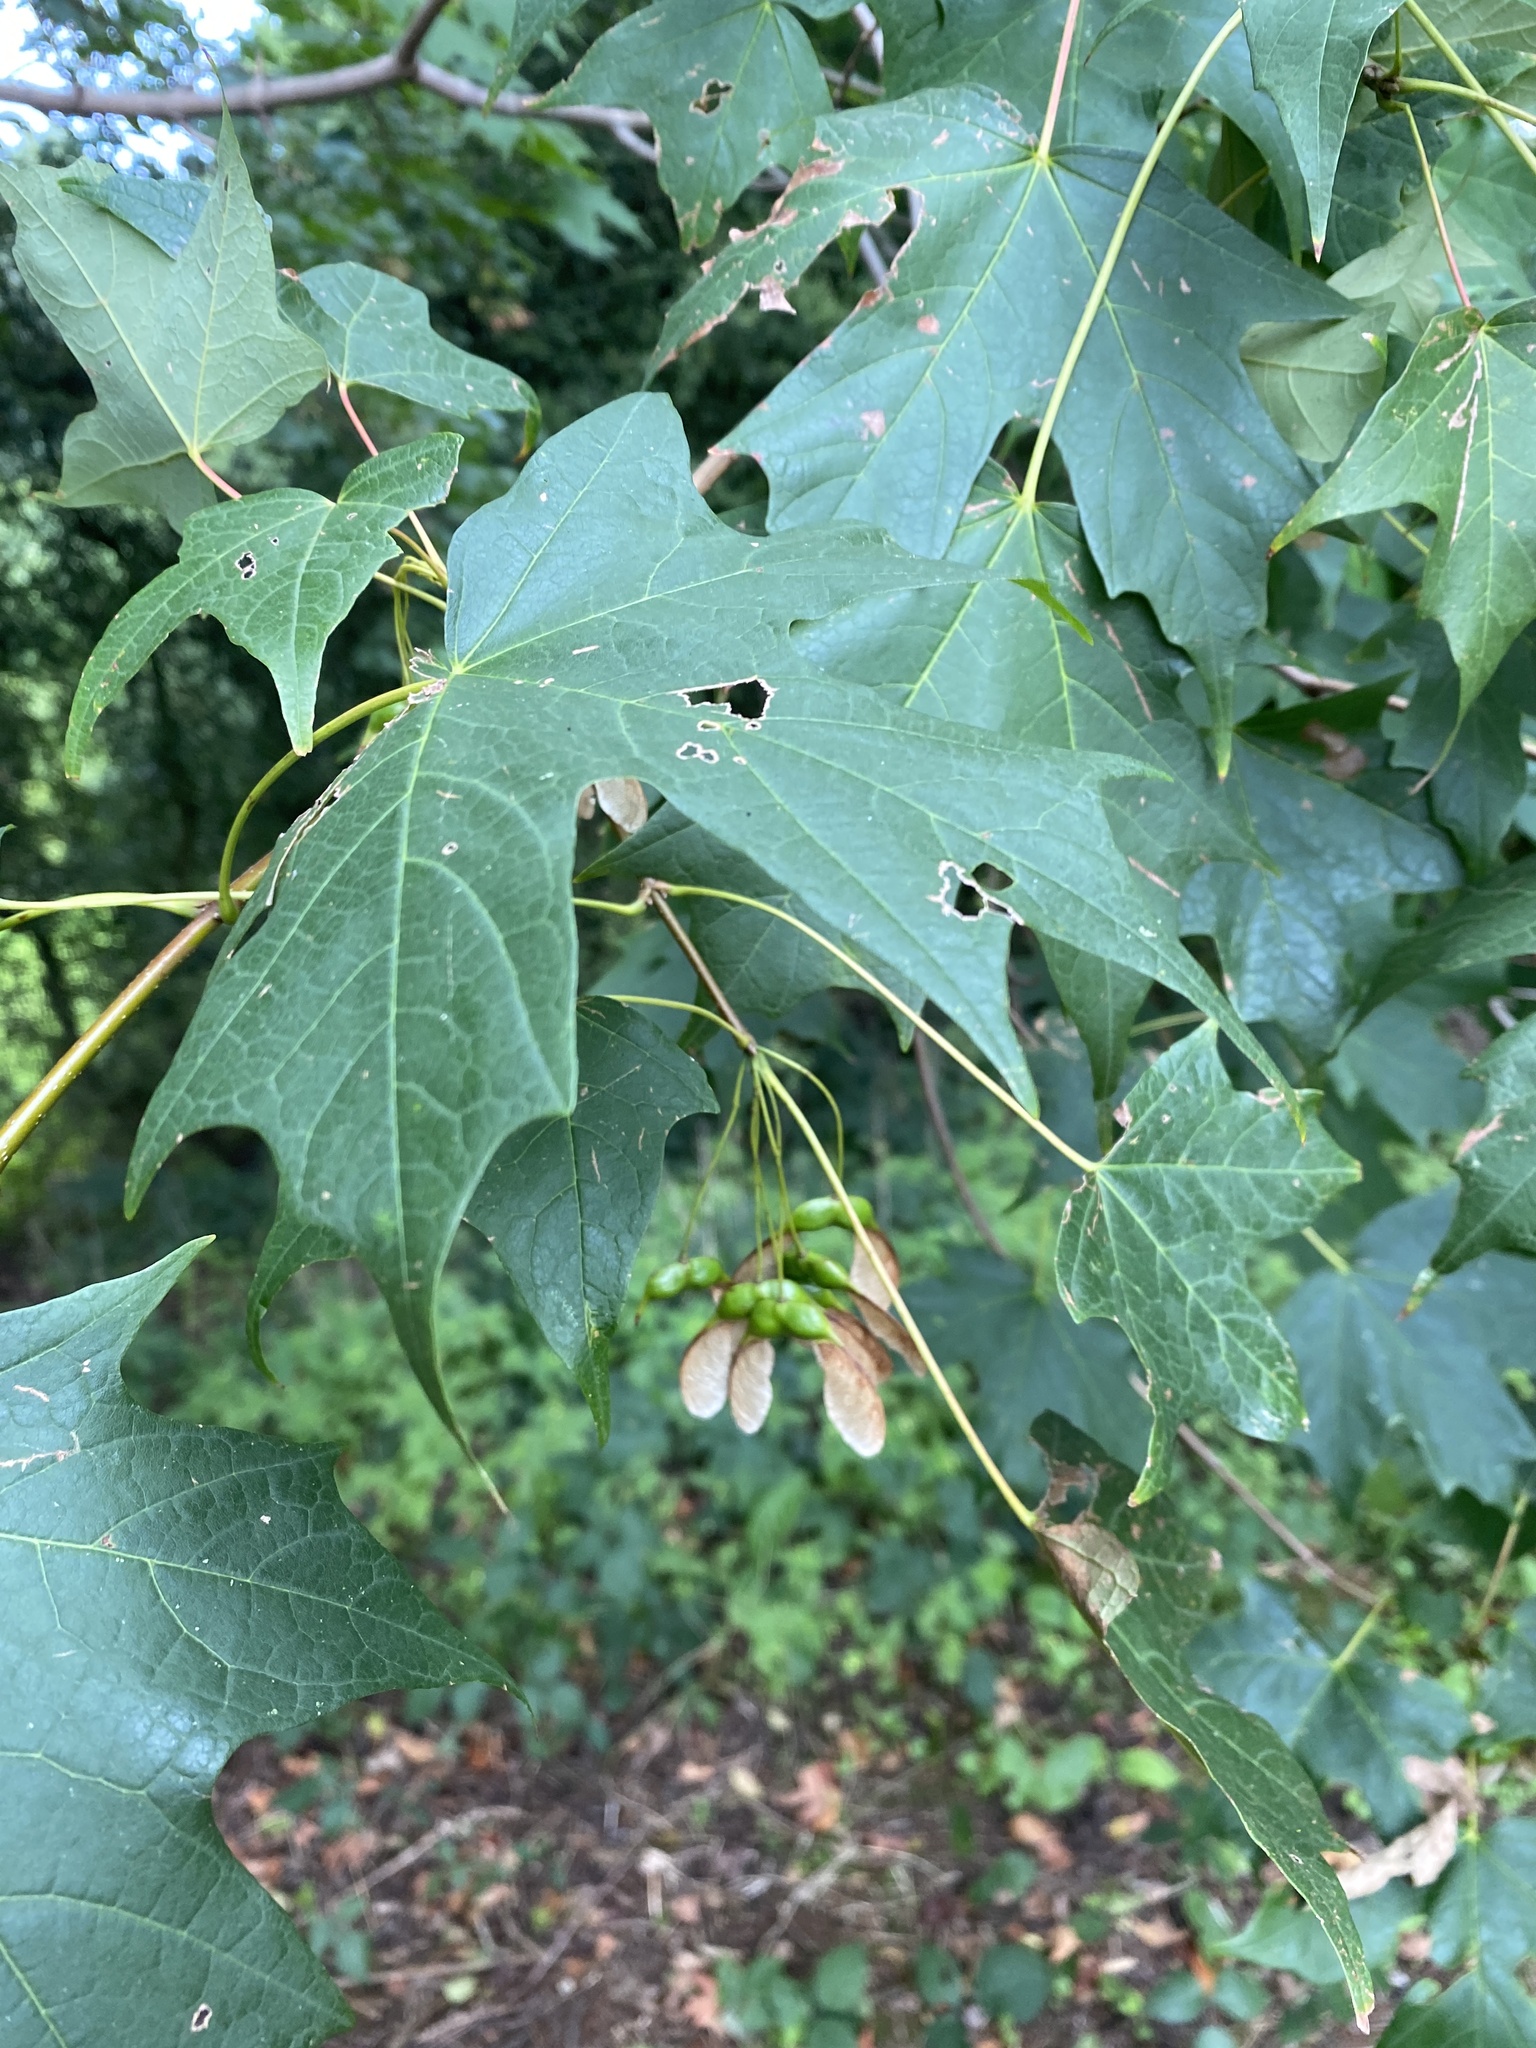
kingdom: Plantae
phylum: Tracheophyta
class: Magnoliopsida
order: Sapindales
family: Sapindaceae
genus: Acer
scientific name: Acer saccharum
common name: Sugar maple
